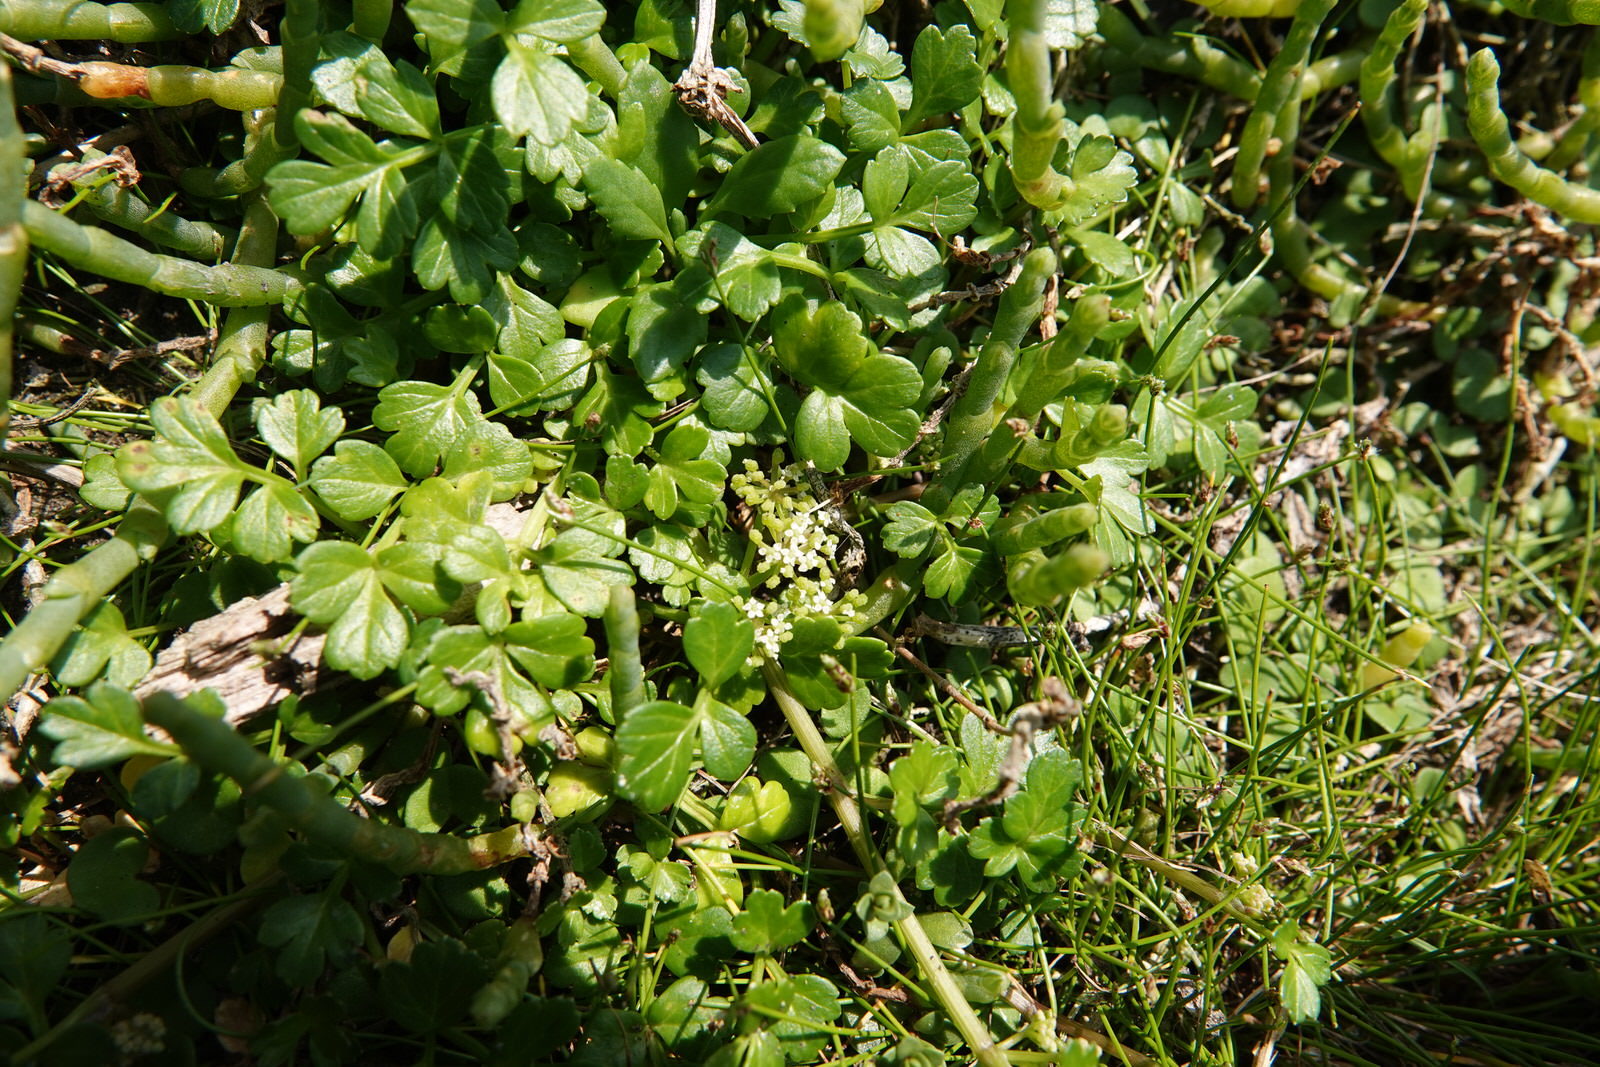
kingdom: Plantae
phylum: Tracheophyta
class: Magnoliopsida
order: Apiales
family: Apiaceae
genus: Apium
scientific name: Apium prostratum
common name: Prostrate marshwort
